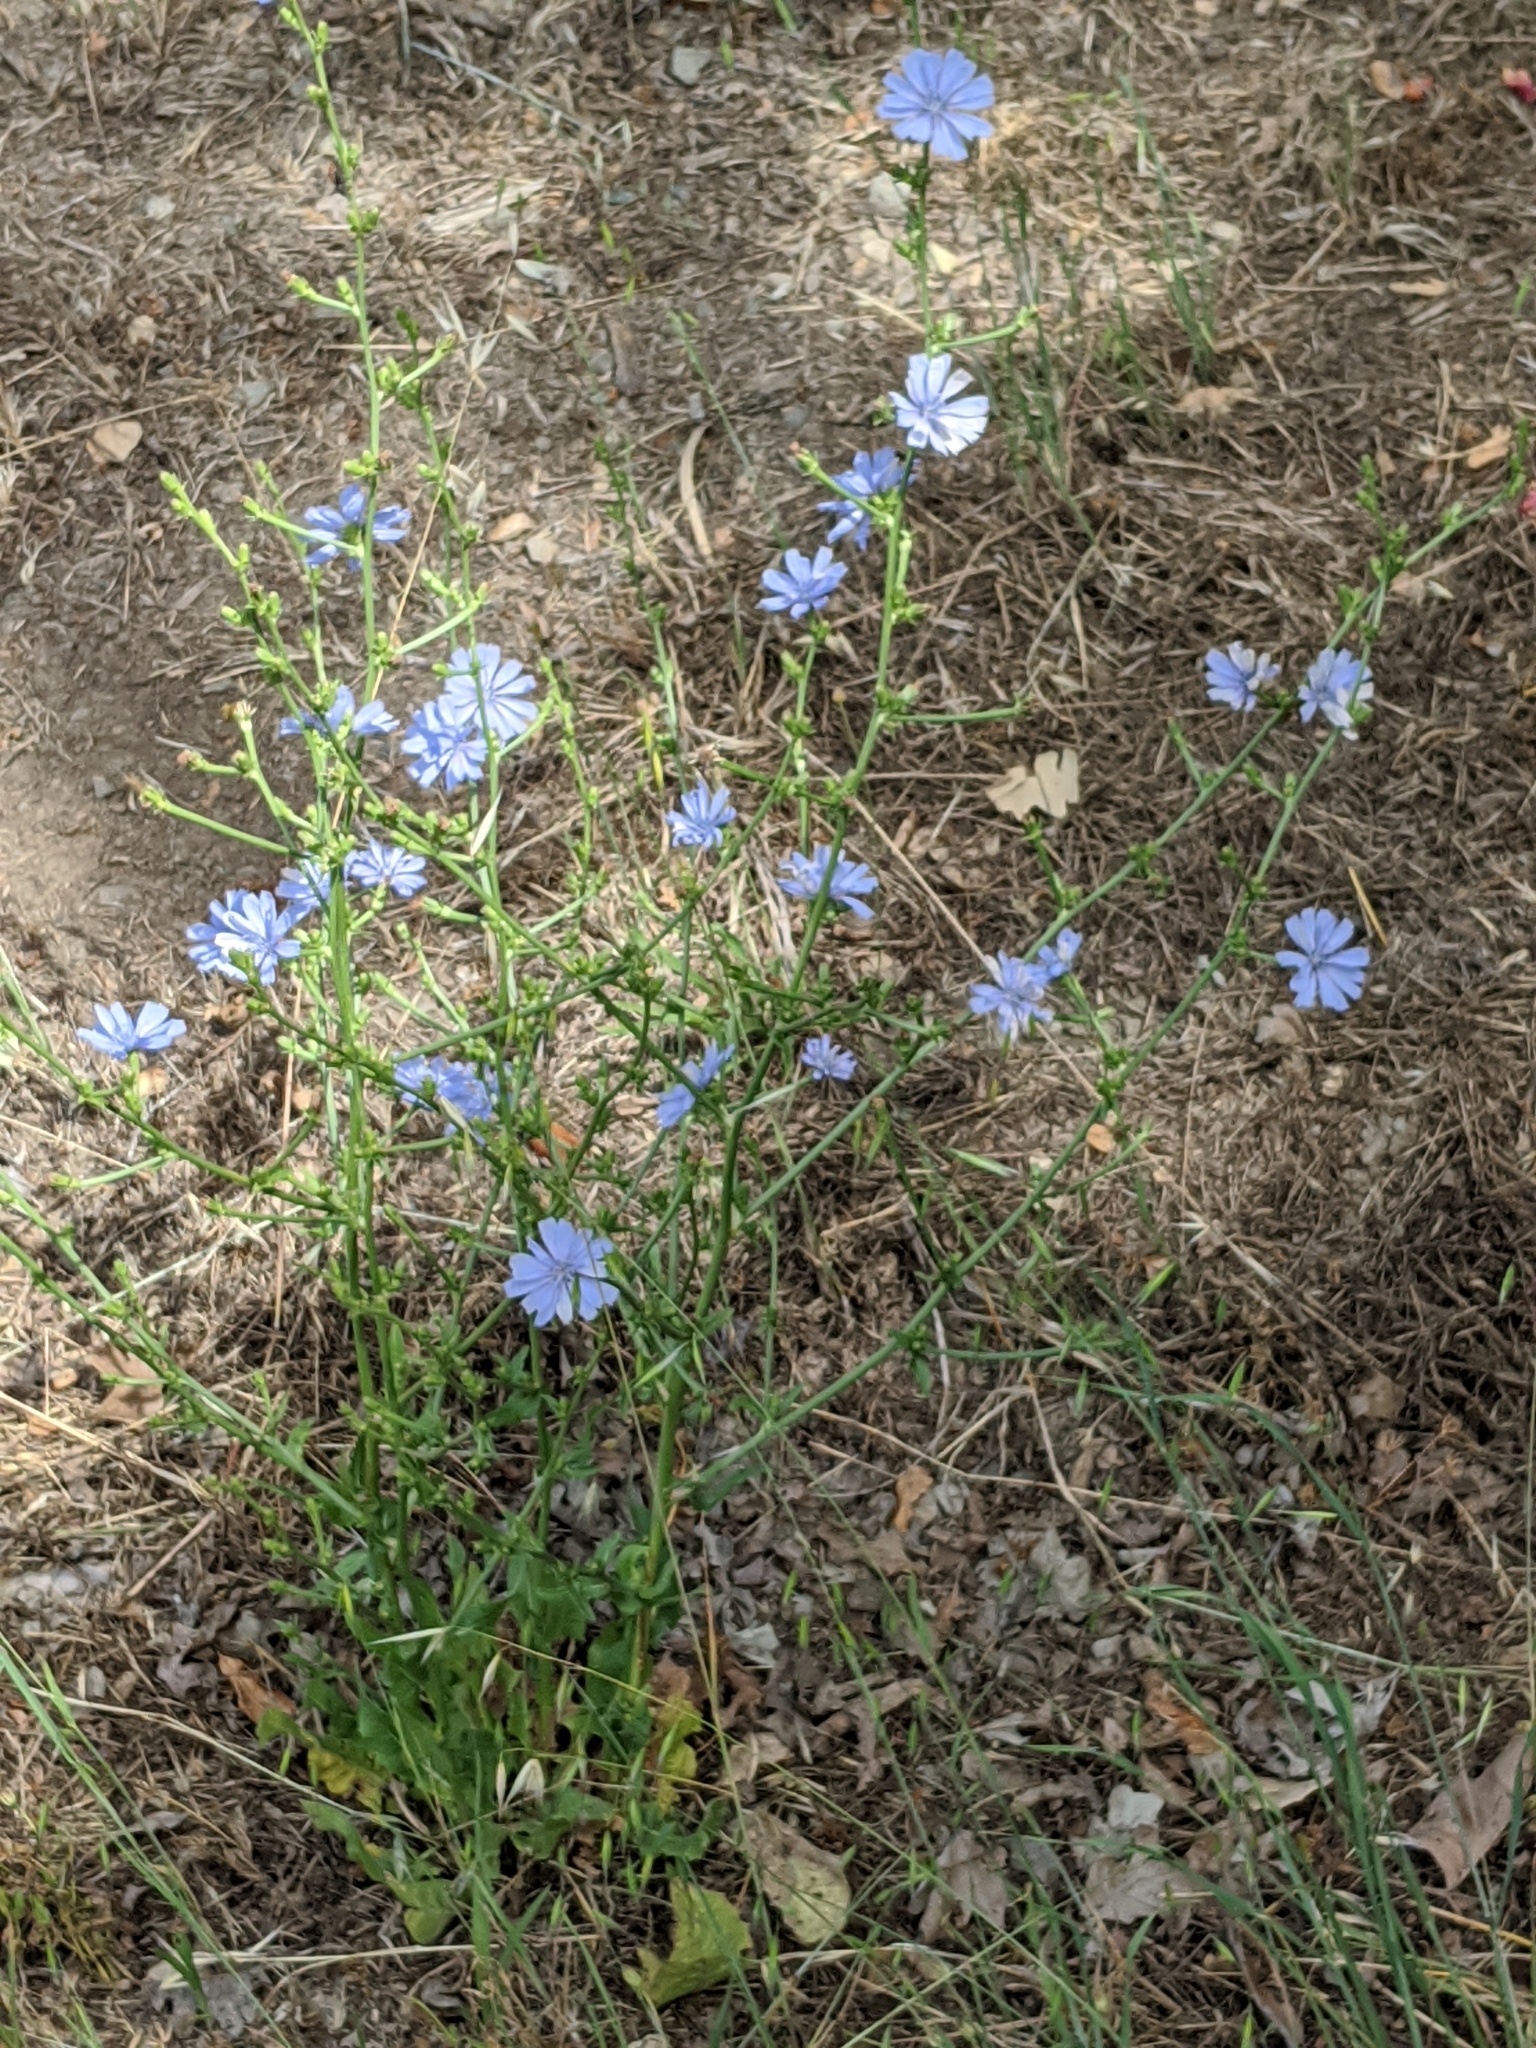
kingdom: Plantae
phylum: Tracheophyta
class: Magnoliopsida
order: Asterales
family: Asteraceae
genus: Cichorium
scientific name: Cichorium intybus
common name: Chicory
